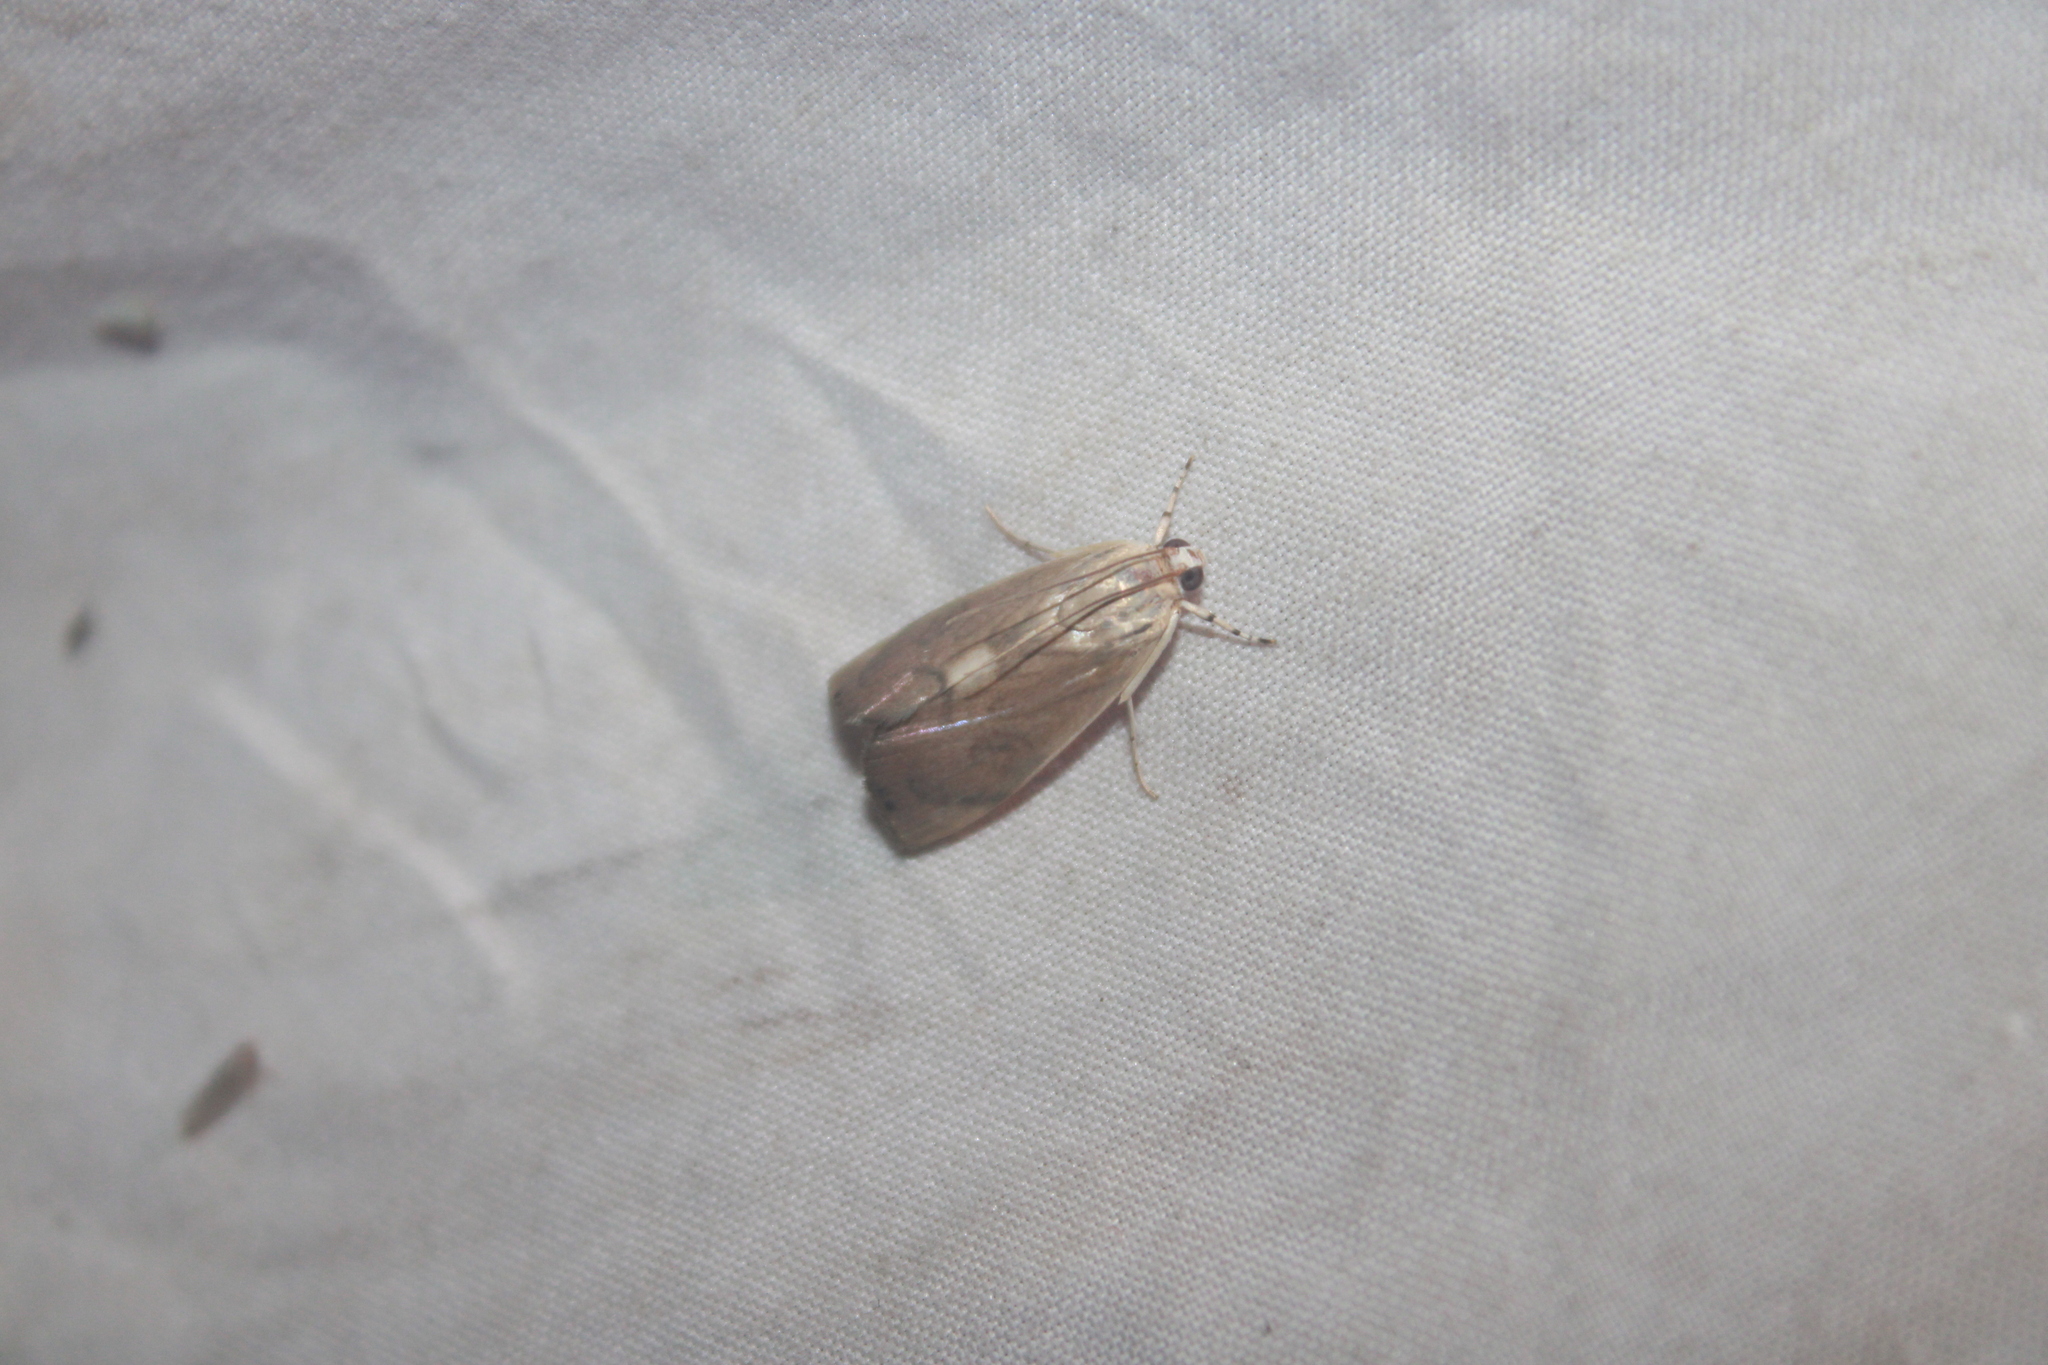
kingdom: Animalia
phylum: Arthropoda
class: Insecta
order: Lepidoptera
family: Crambidae
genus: Dichogama
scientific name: Dichogama redtenbacheri
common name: Carper-leaf webworm moth
